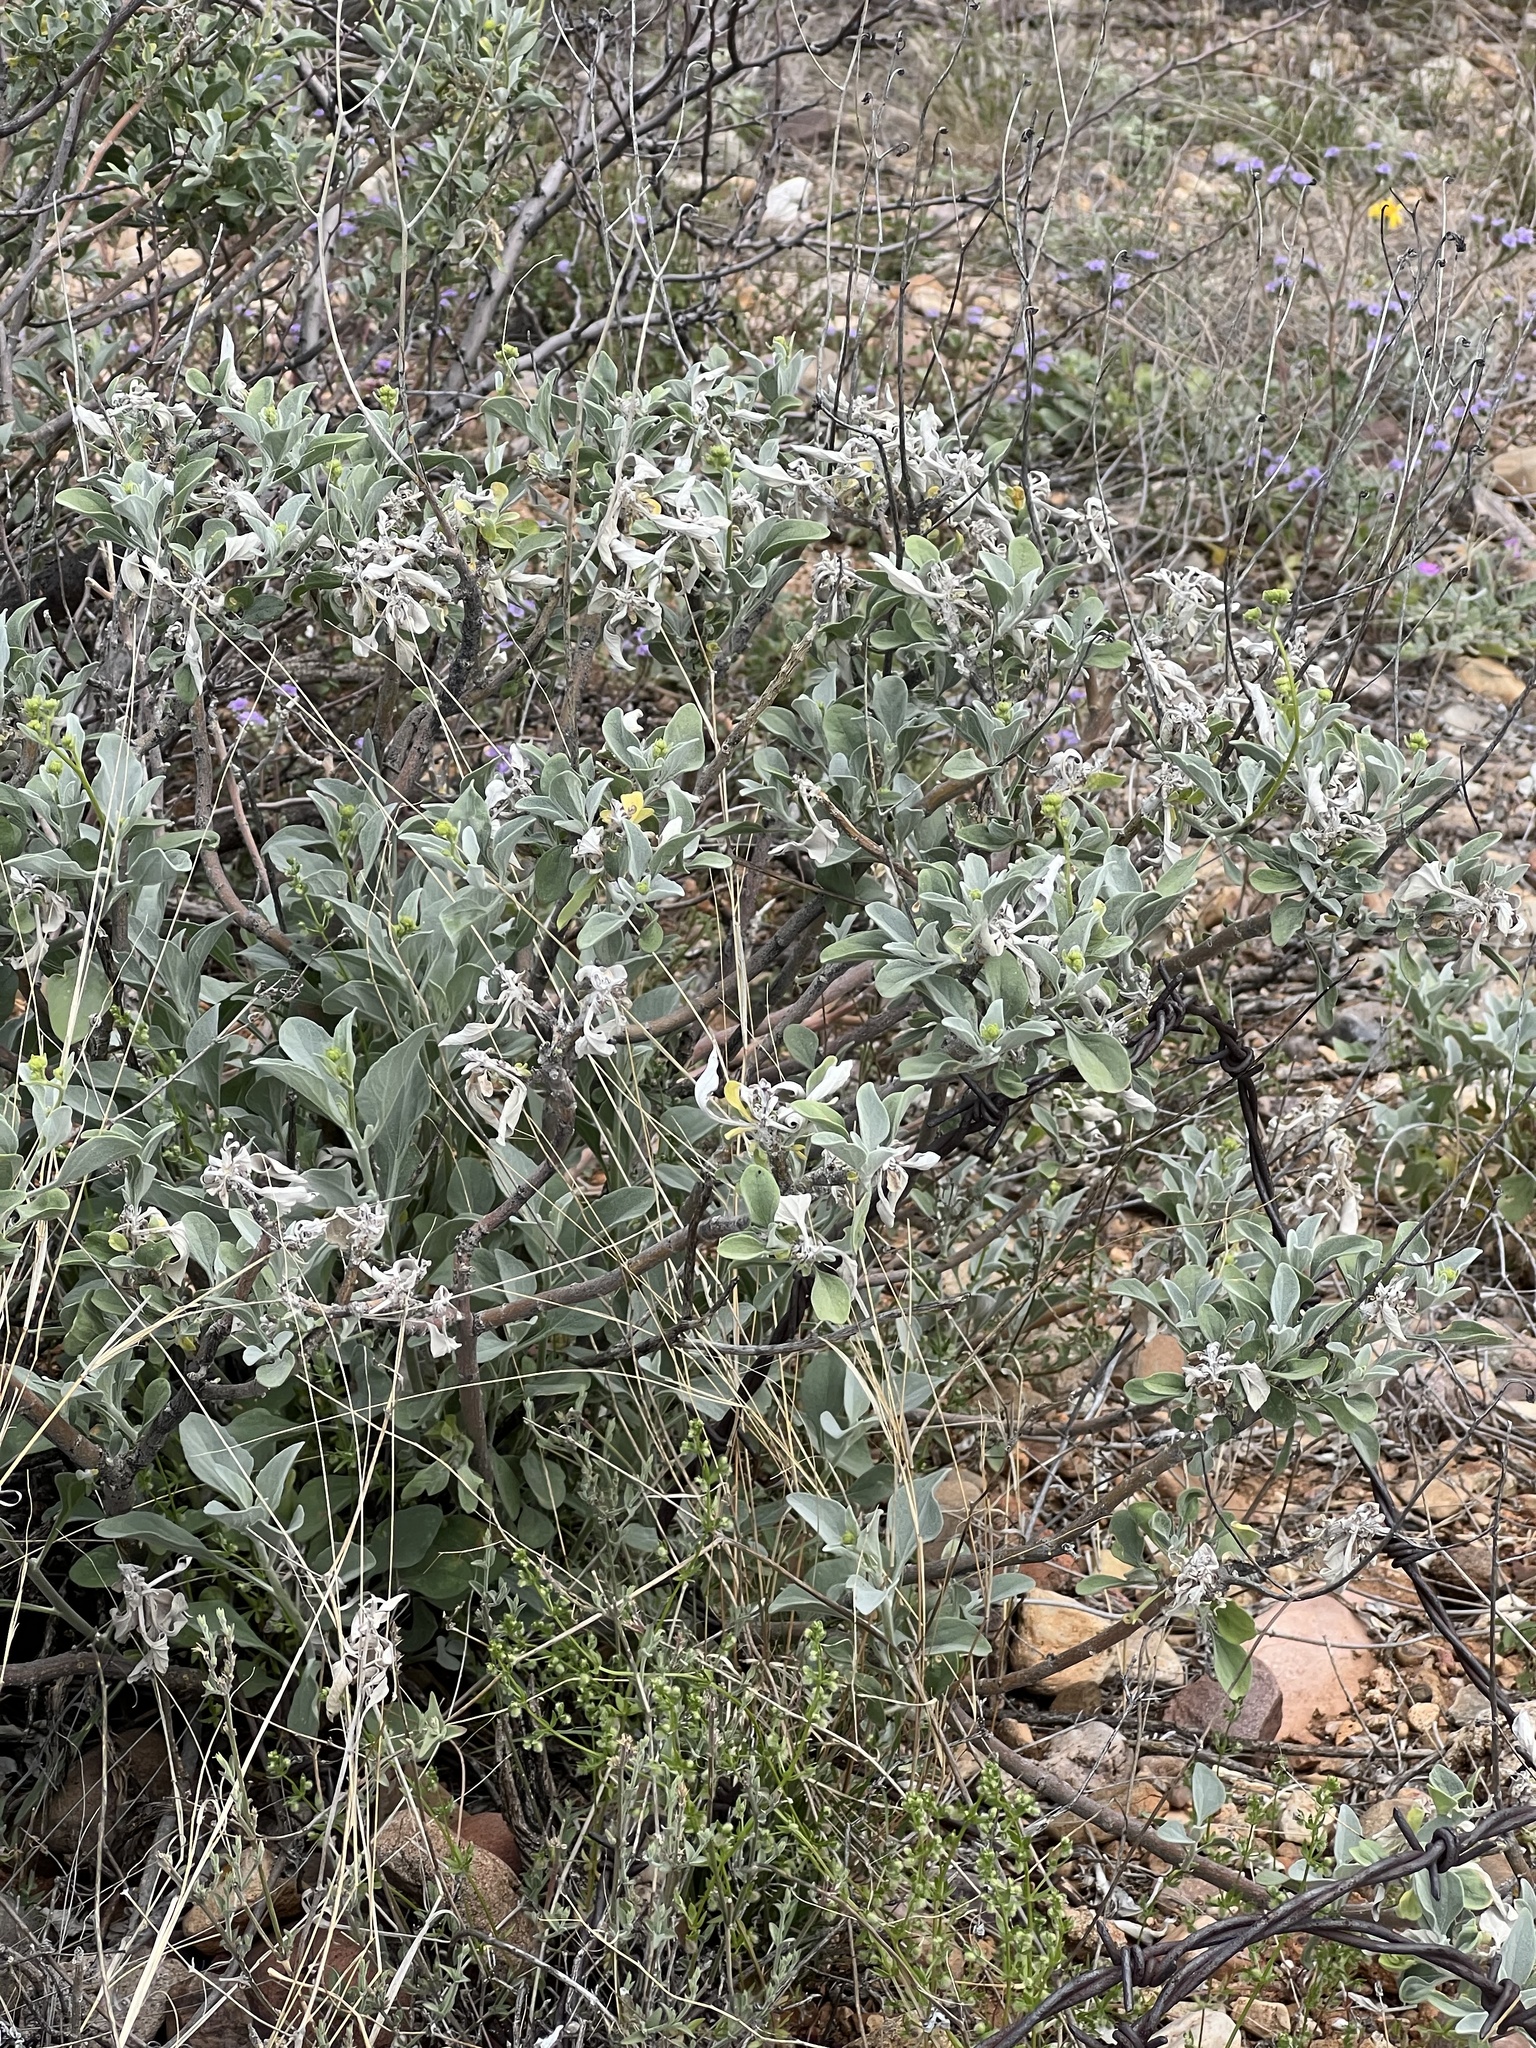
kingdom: Plantae
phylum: Tracheophyta
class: Magnoliopsida
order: Asterales
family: Asteraceae
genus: Encelia
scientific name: Encelia farinosa
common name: Brittlebush
